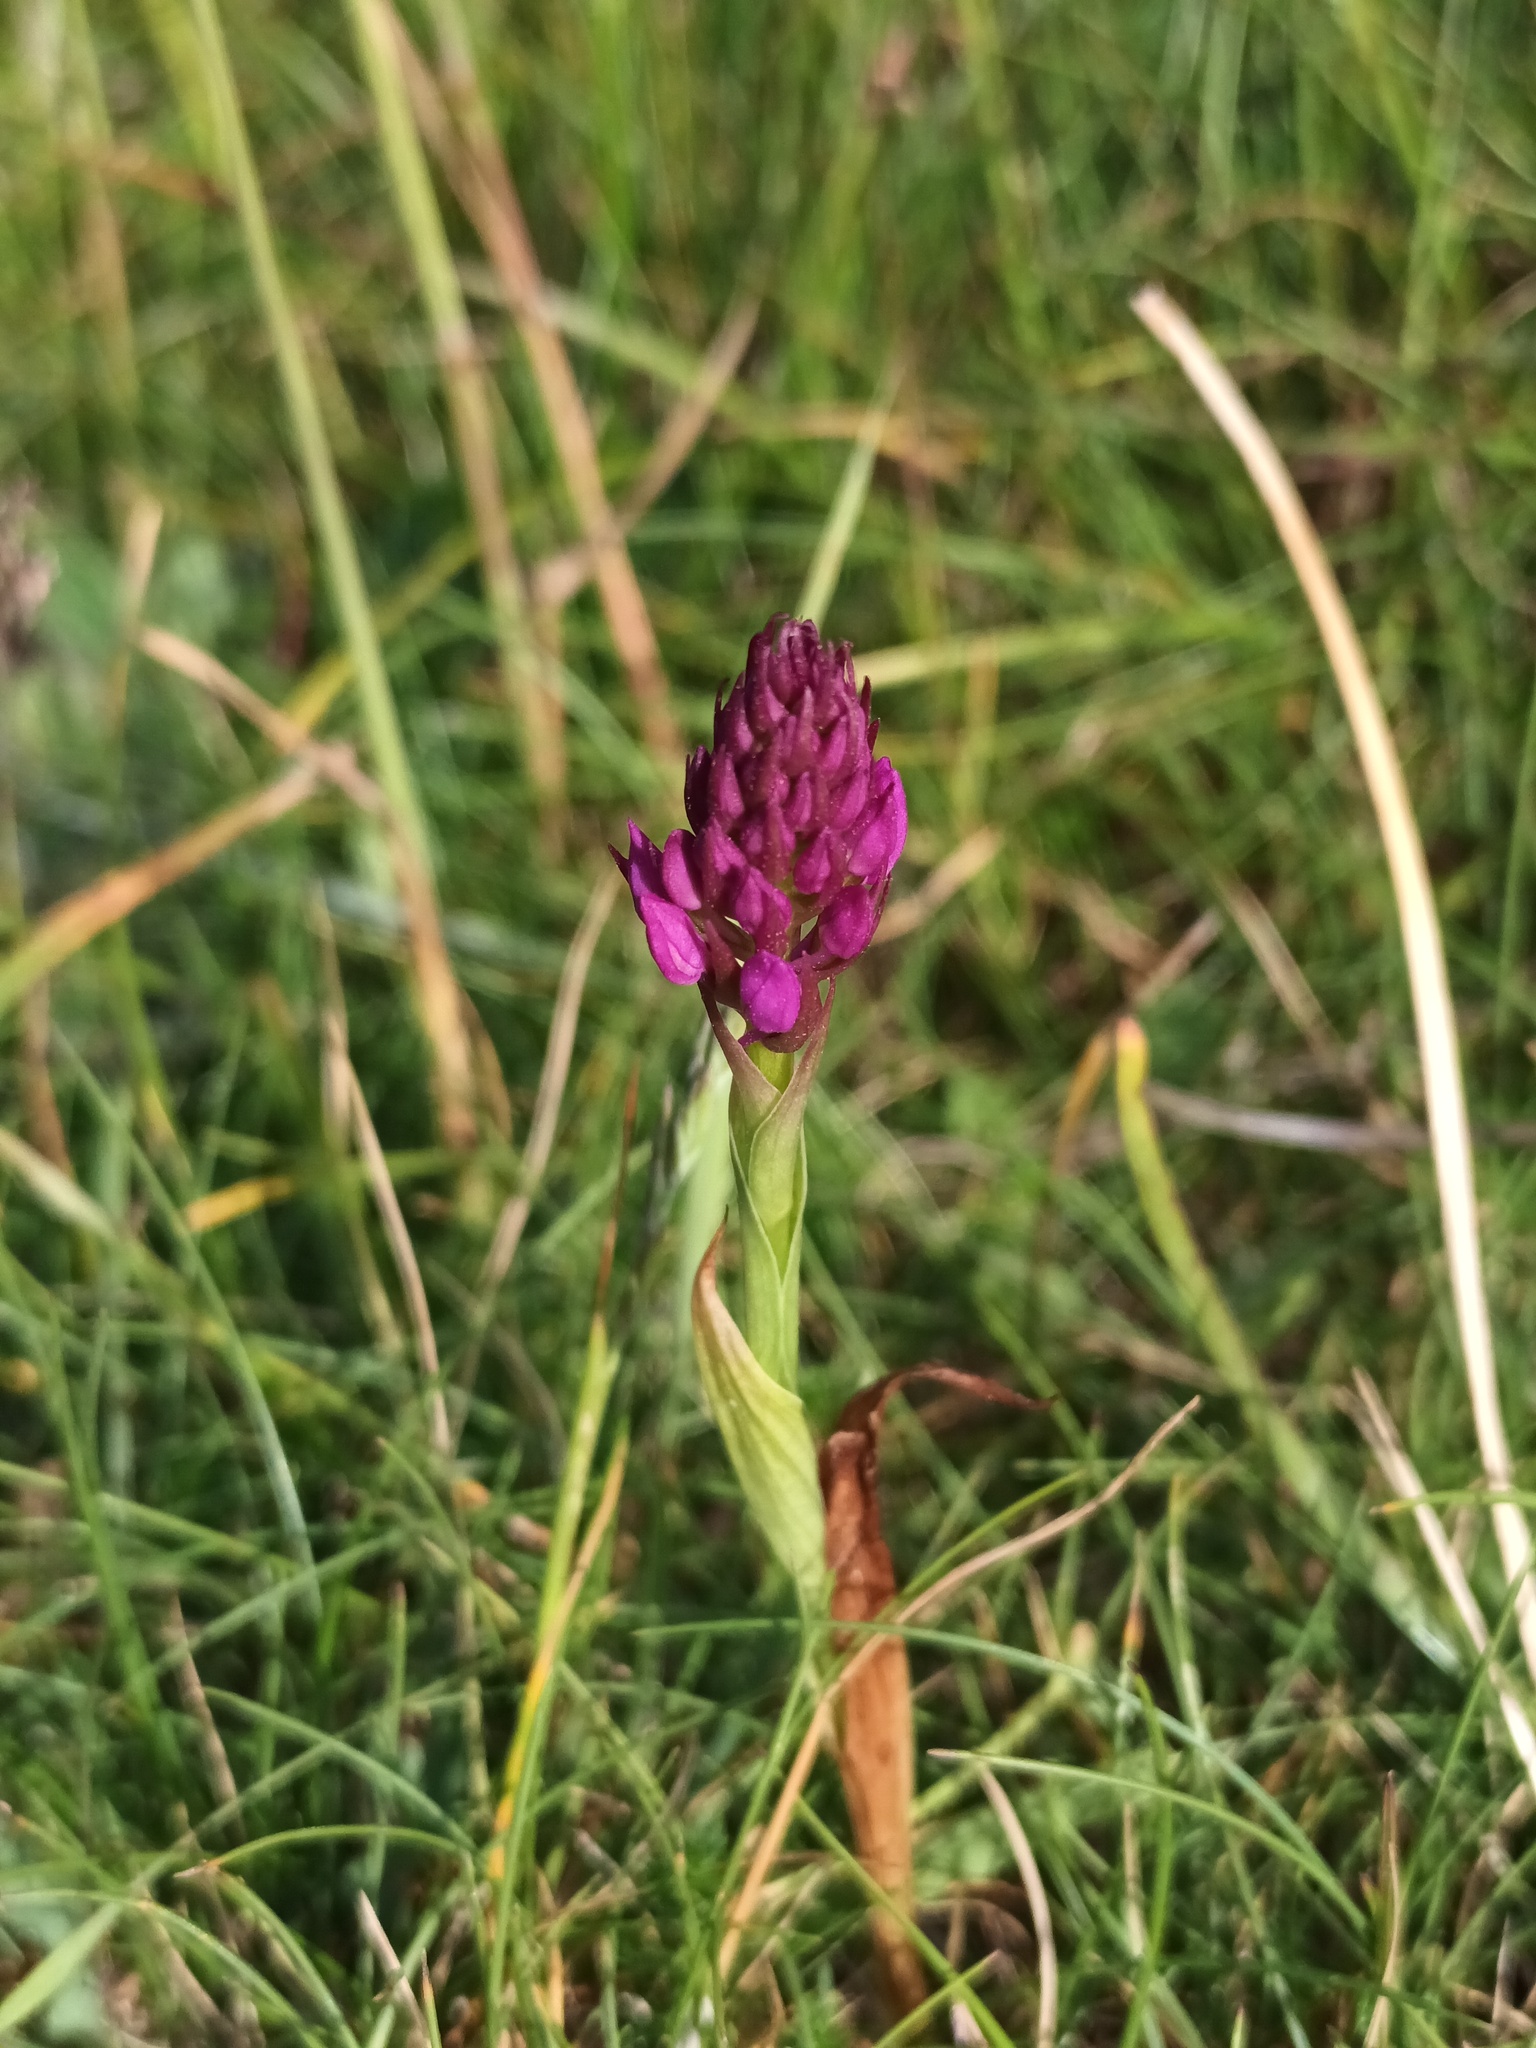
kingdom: Plantae
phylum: Tracheophyta
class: Liliopsida
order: Asparagales
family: Orchidaceae
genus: Anacamptis
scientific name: Anacamptis pyramidalis
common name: Pyramidal orchid
